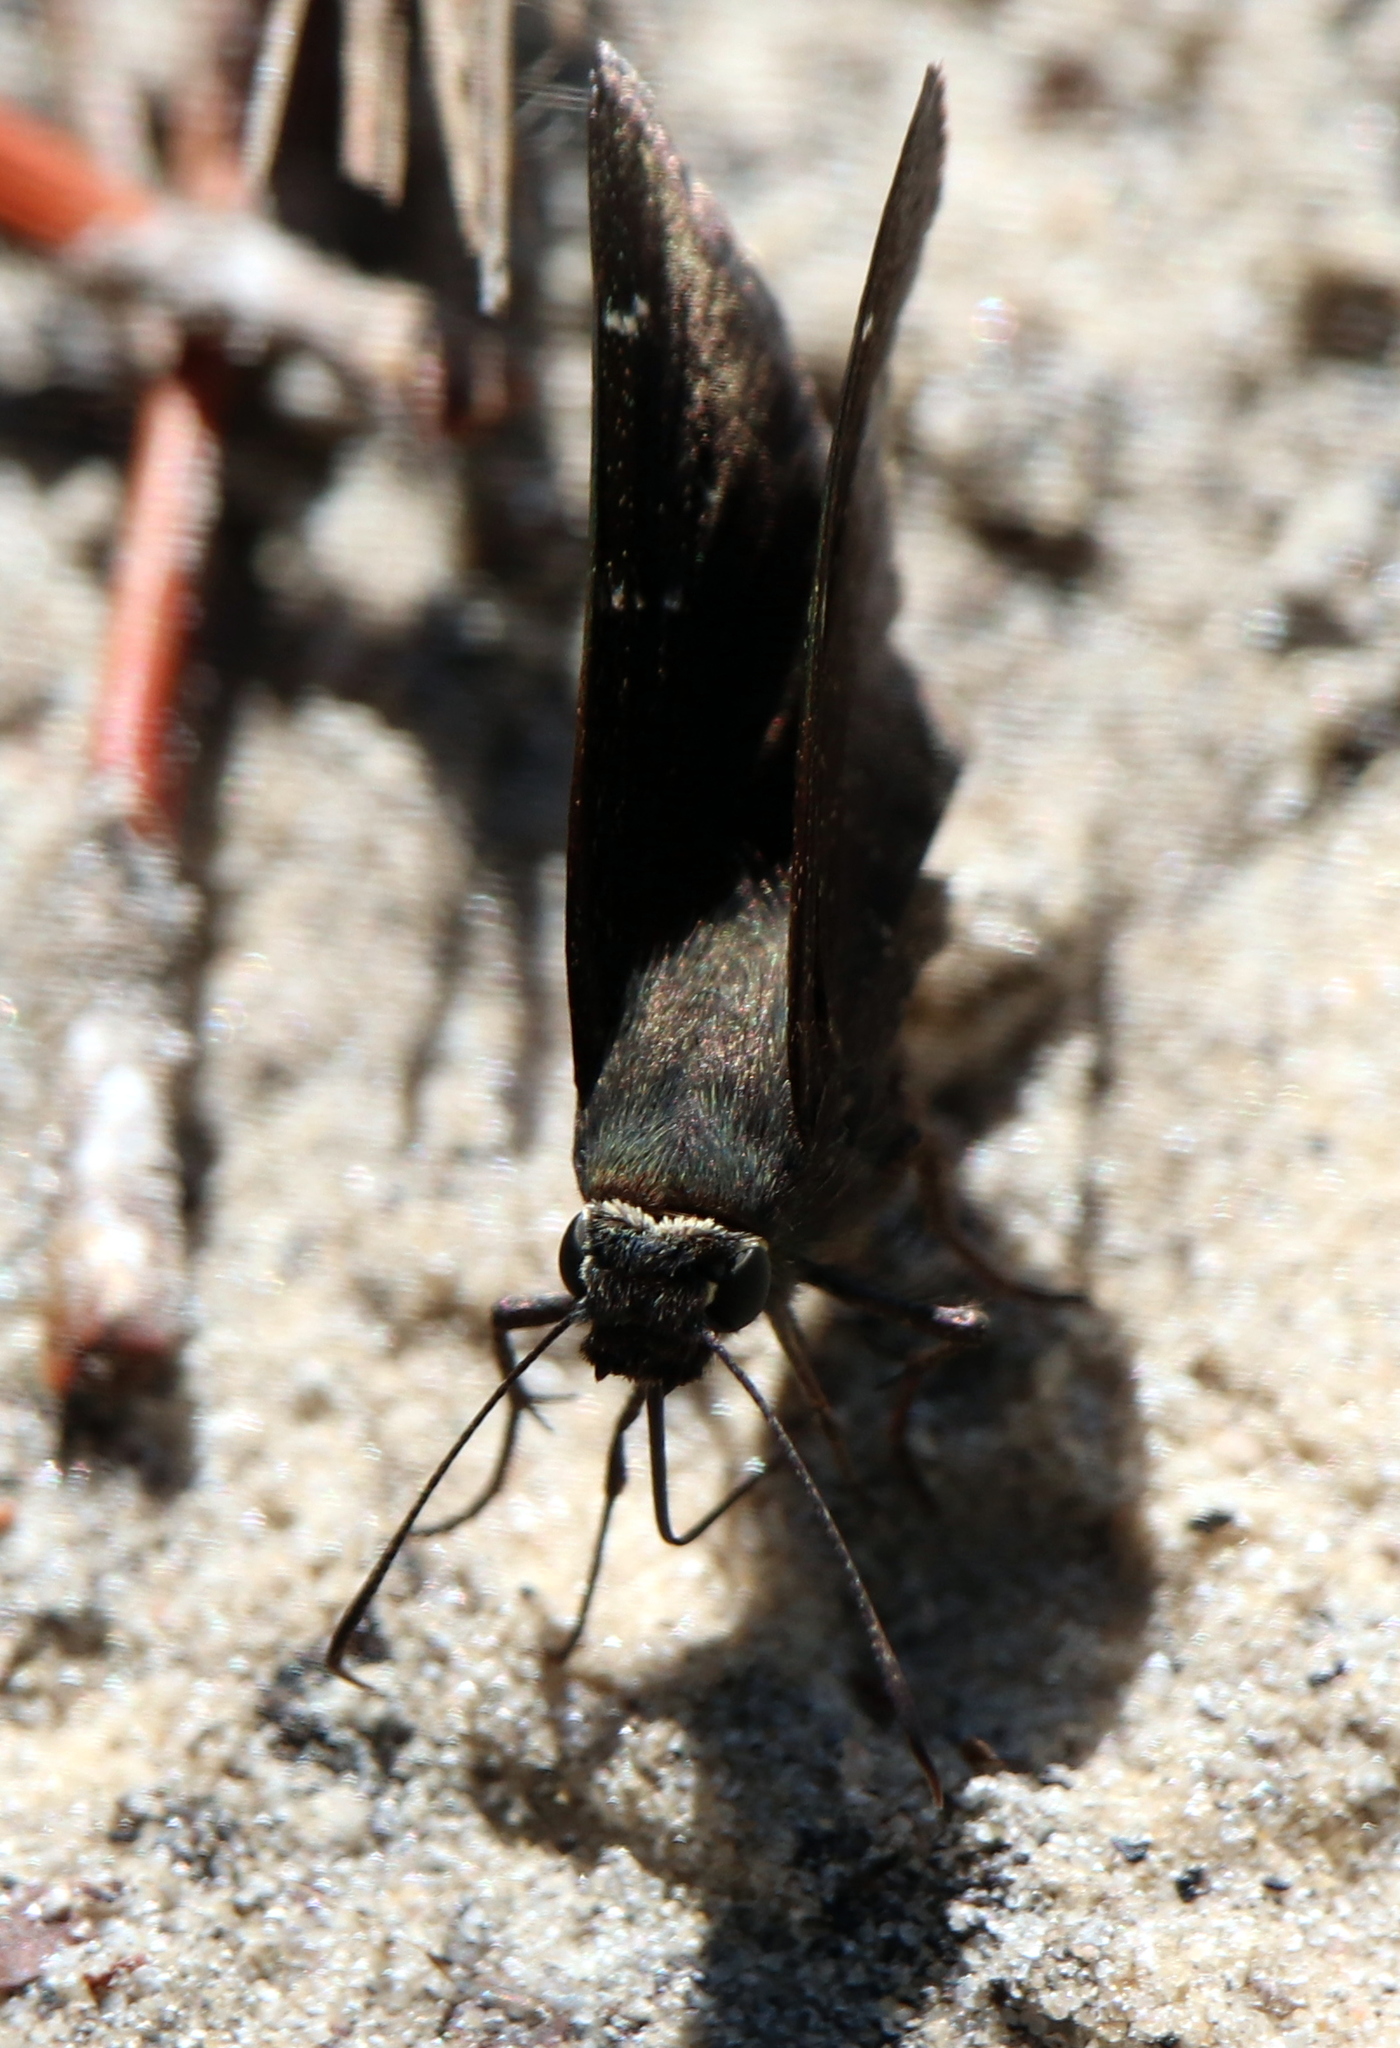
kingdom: Animalia
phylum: Arthropoda
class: Insecta
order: Lepidoptera
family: Hesperiidae
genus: Thorybes
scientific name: Thorybes daunus
